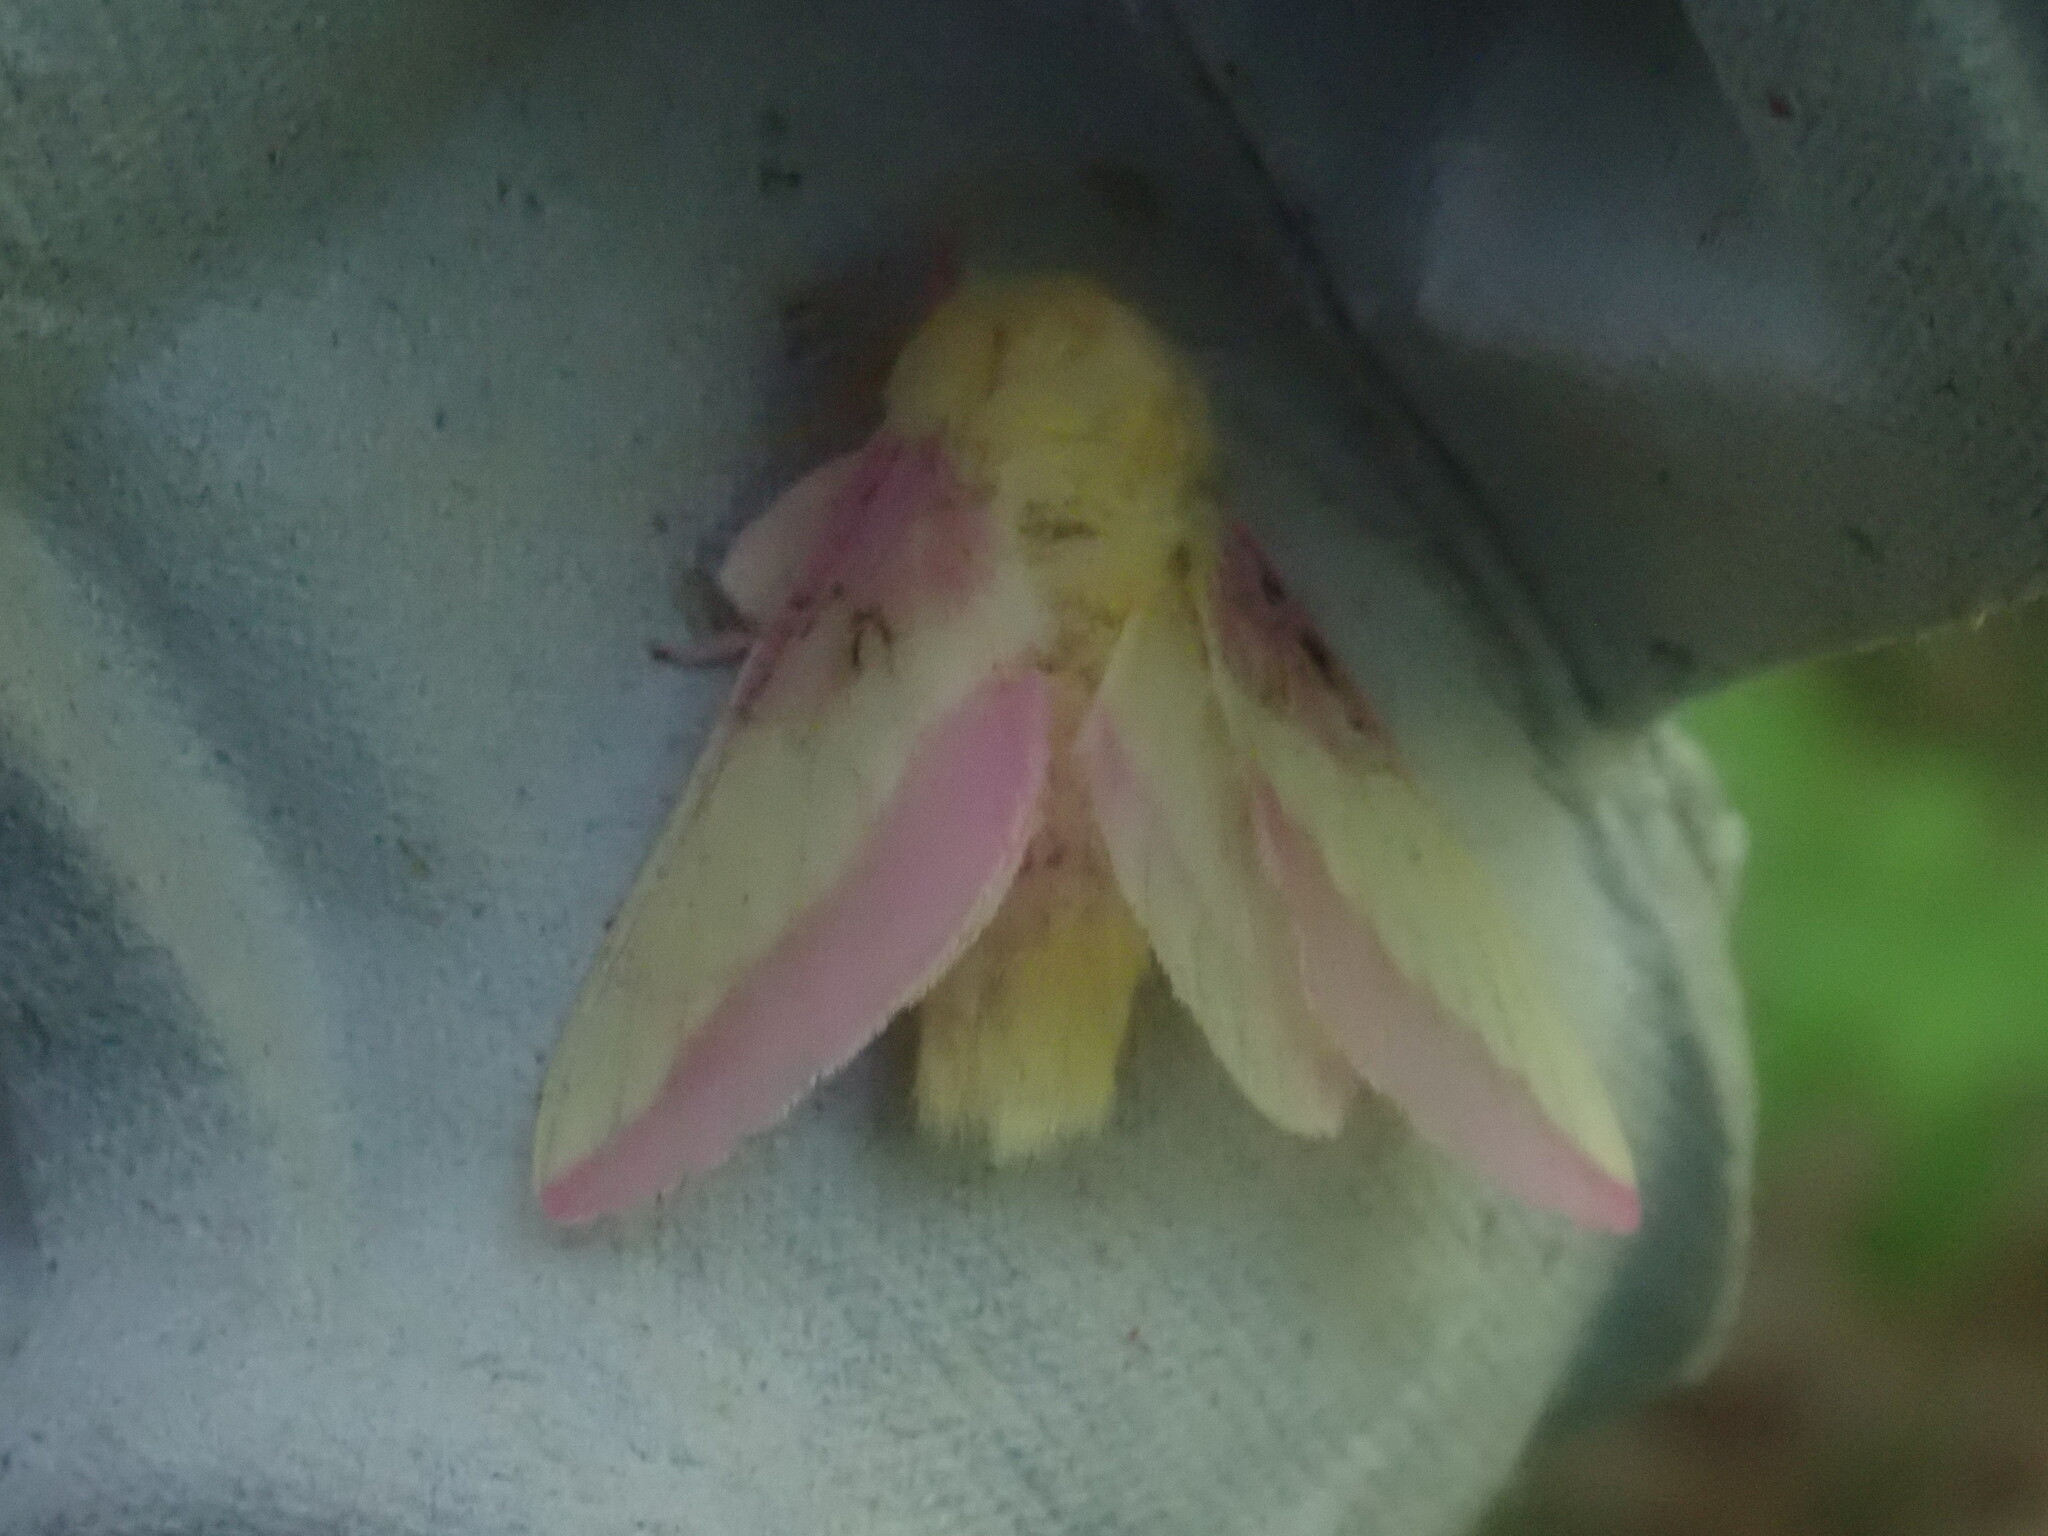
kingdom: Animalia
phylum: Arthropoda
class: Insecta
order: Lepidoptera
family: Saturniidae
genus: Dryocampa
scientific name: Dryocampa rubicunda
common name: Rosy maple moth
